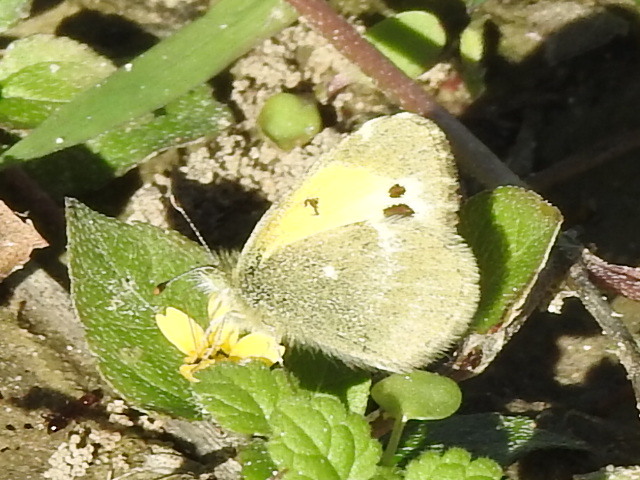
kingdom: Animalia
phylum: Arthropoda
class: Insecta
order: Lepidoptera
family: Pieridae
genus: Nathalis
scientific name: Nathalis iole
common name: Dainty sulphur
